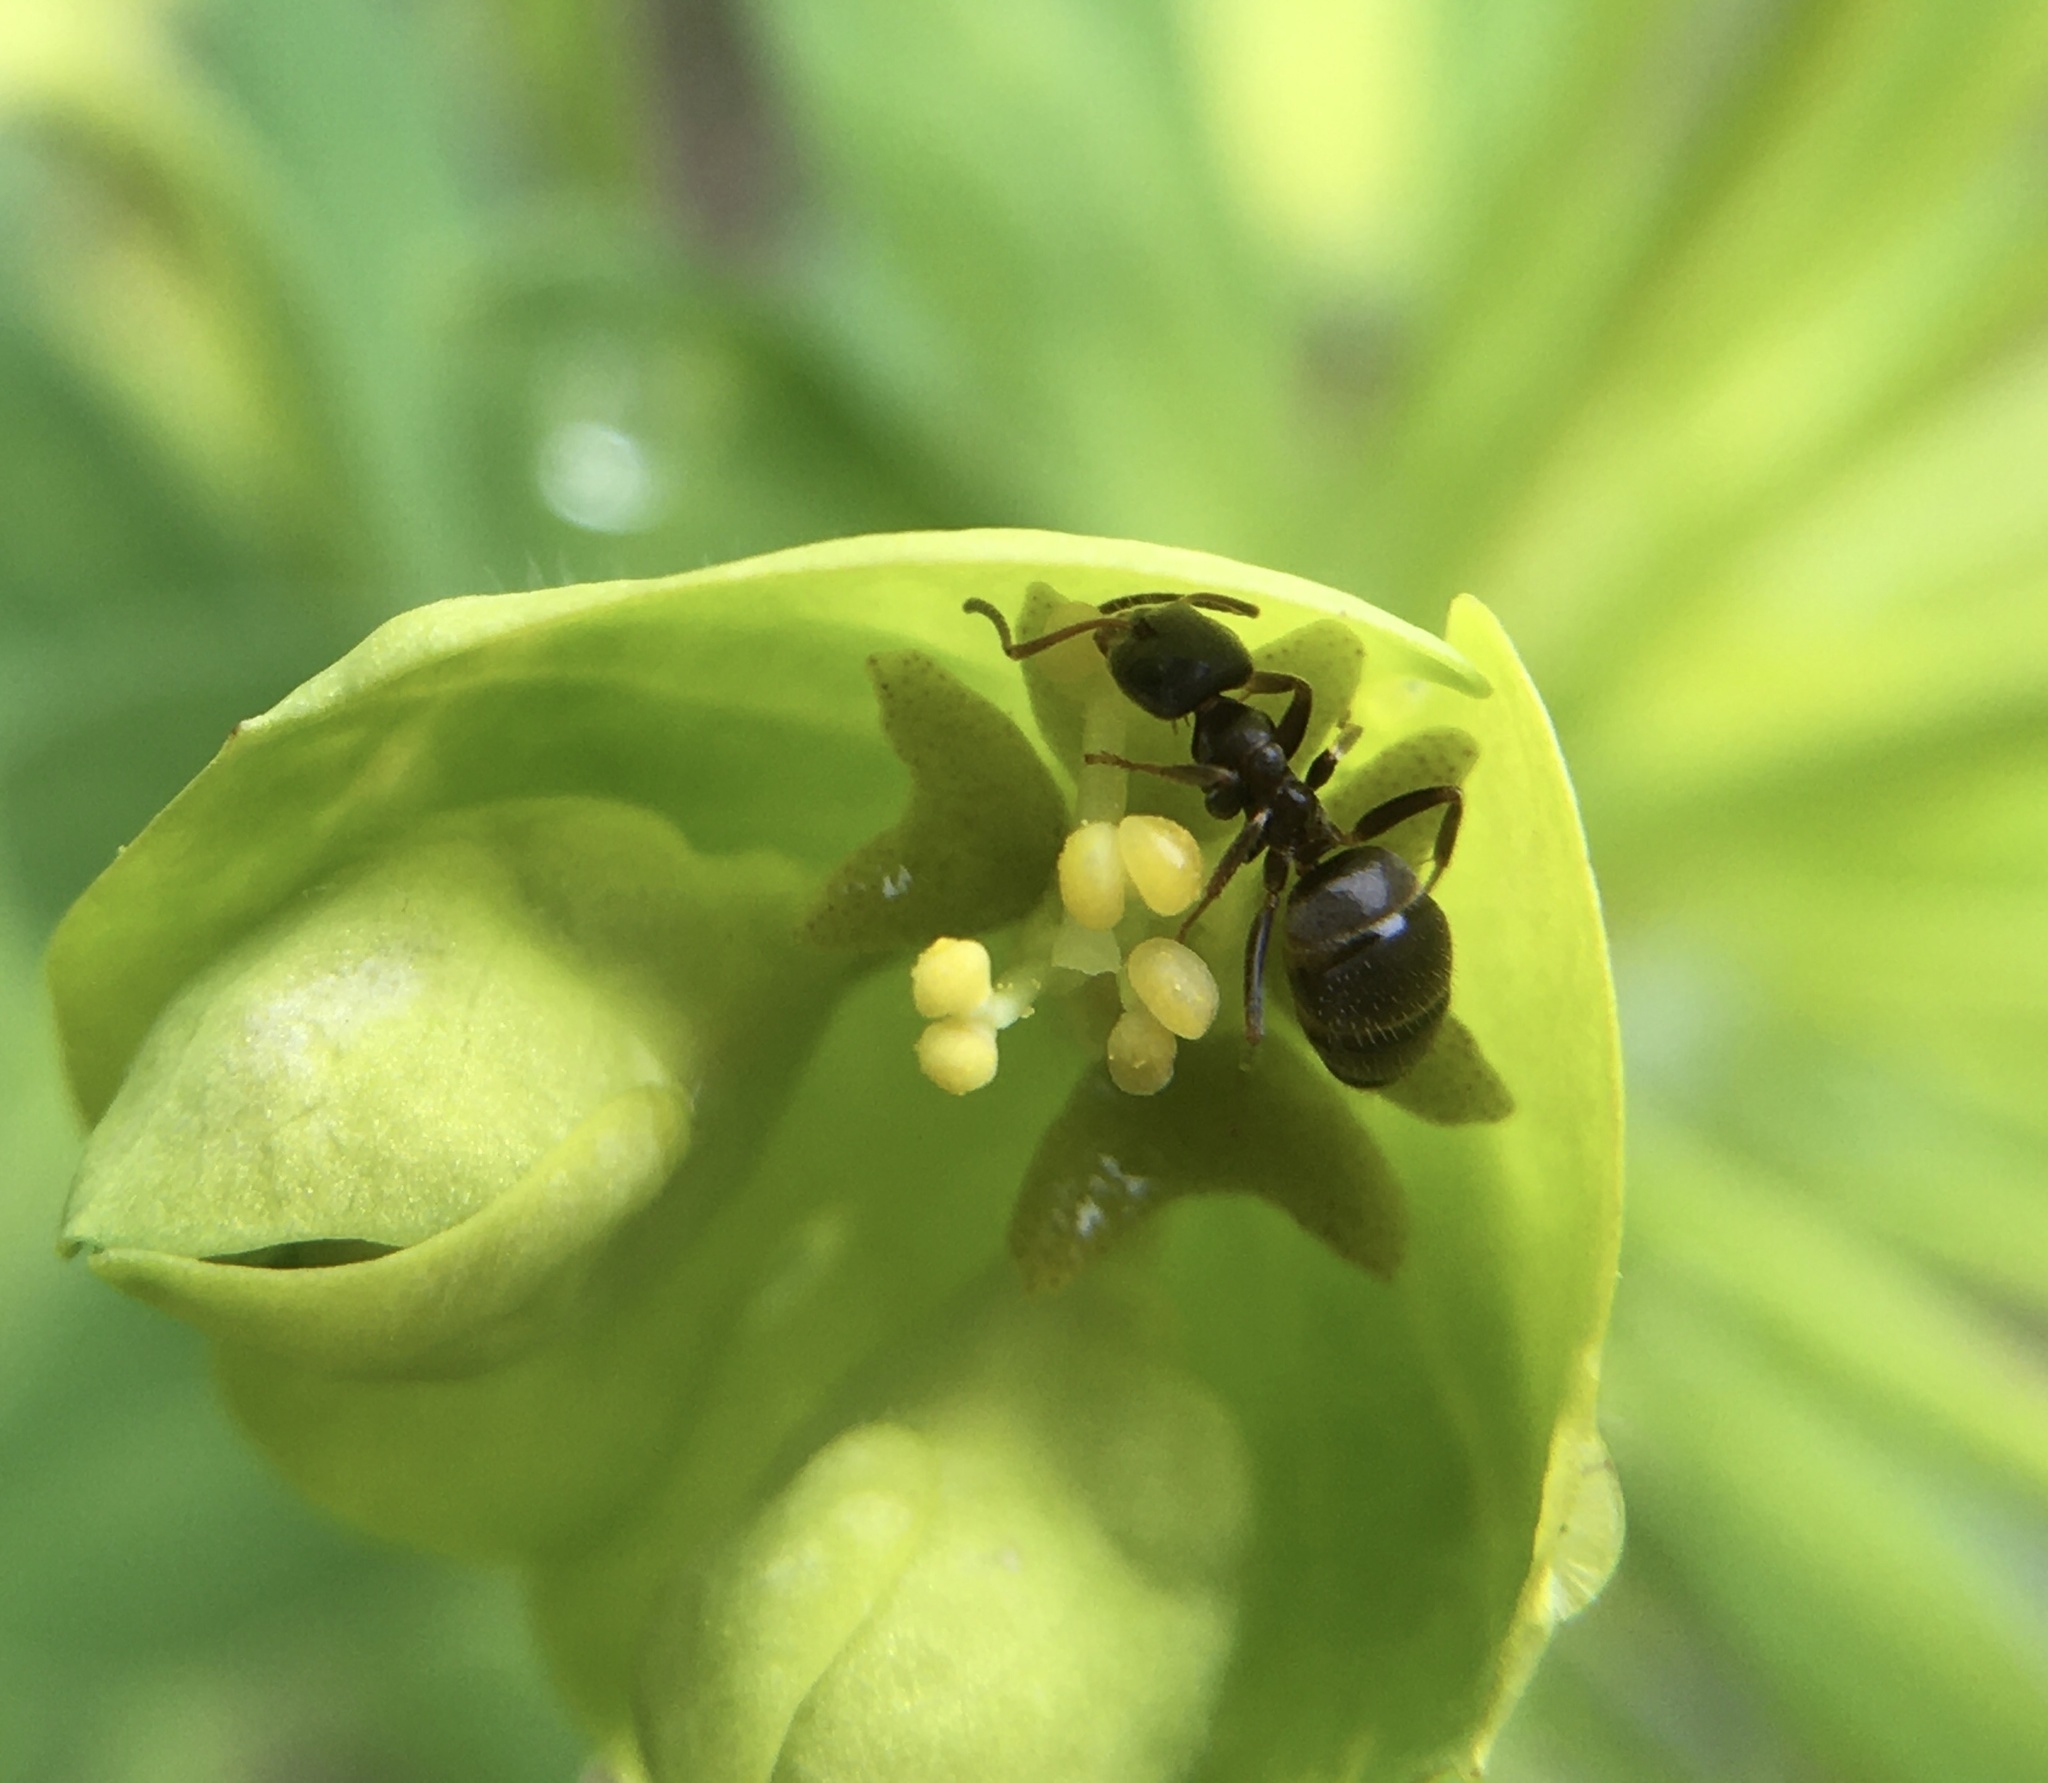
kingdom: Animalia
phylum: Arthropoda
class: Insecta
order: Hymenoptera
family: Formicidae
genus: Lasius
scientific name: Lasius niger
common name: Small black ant
